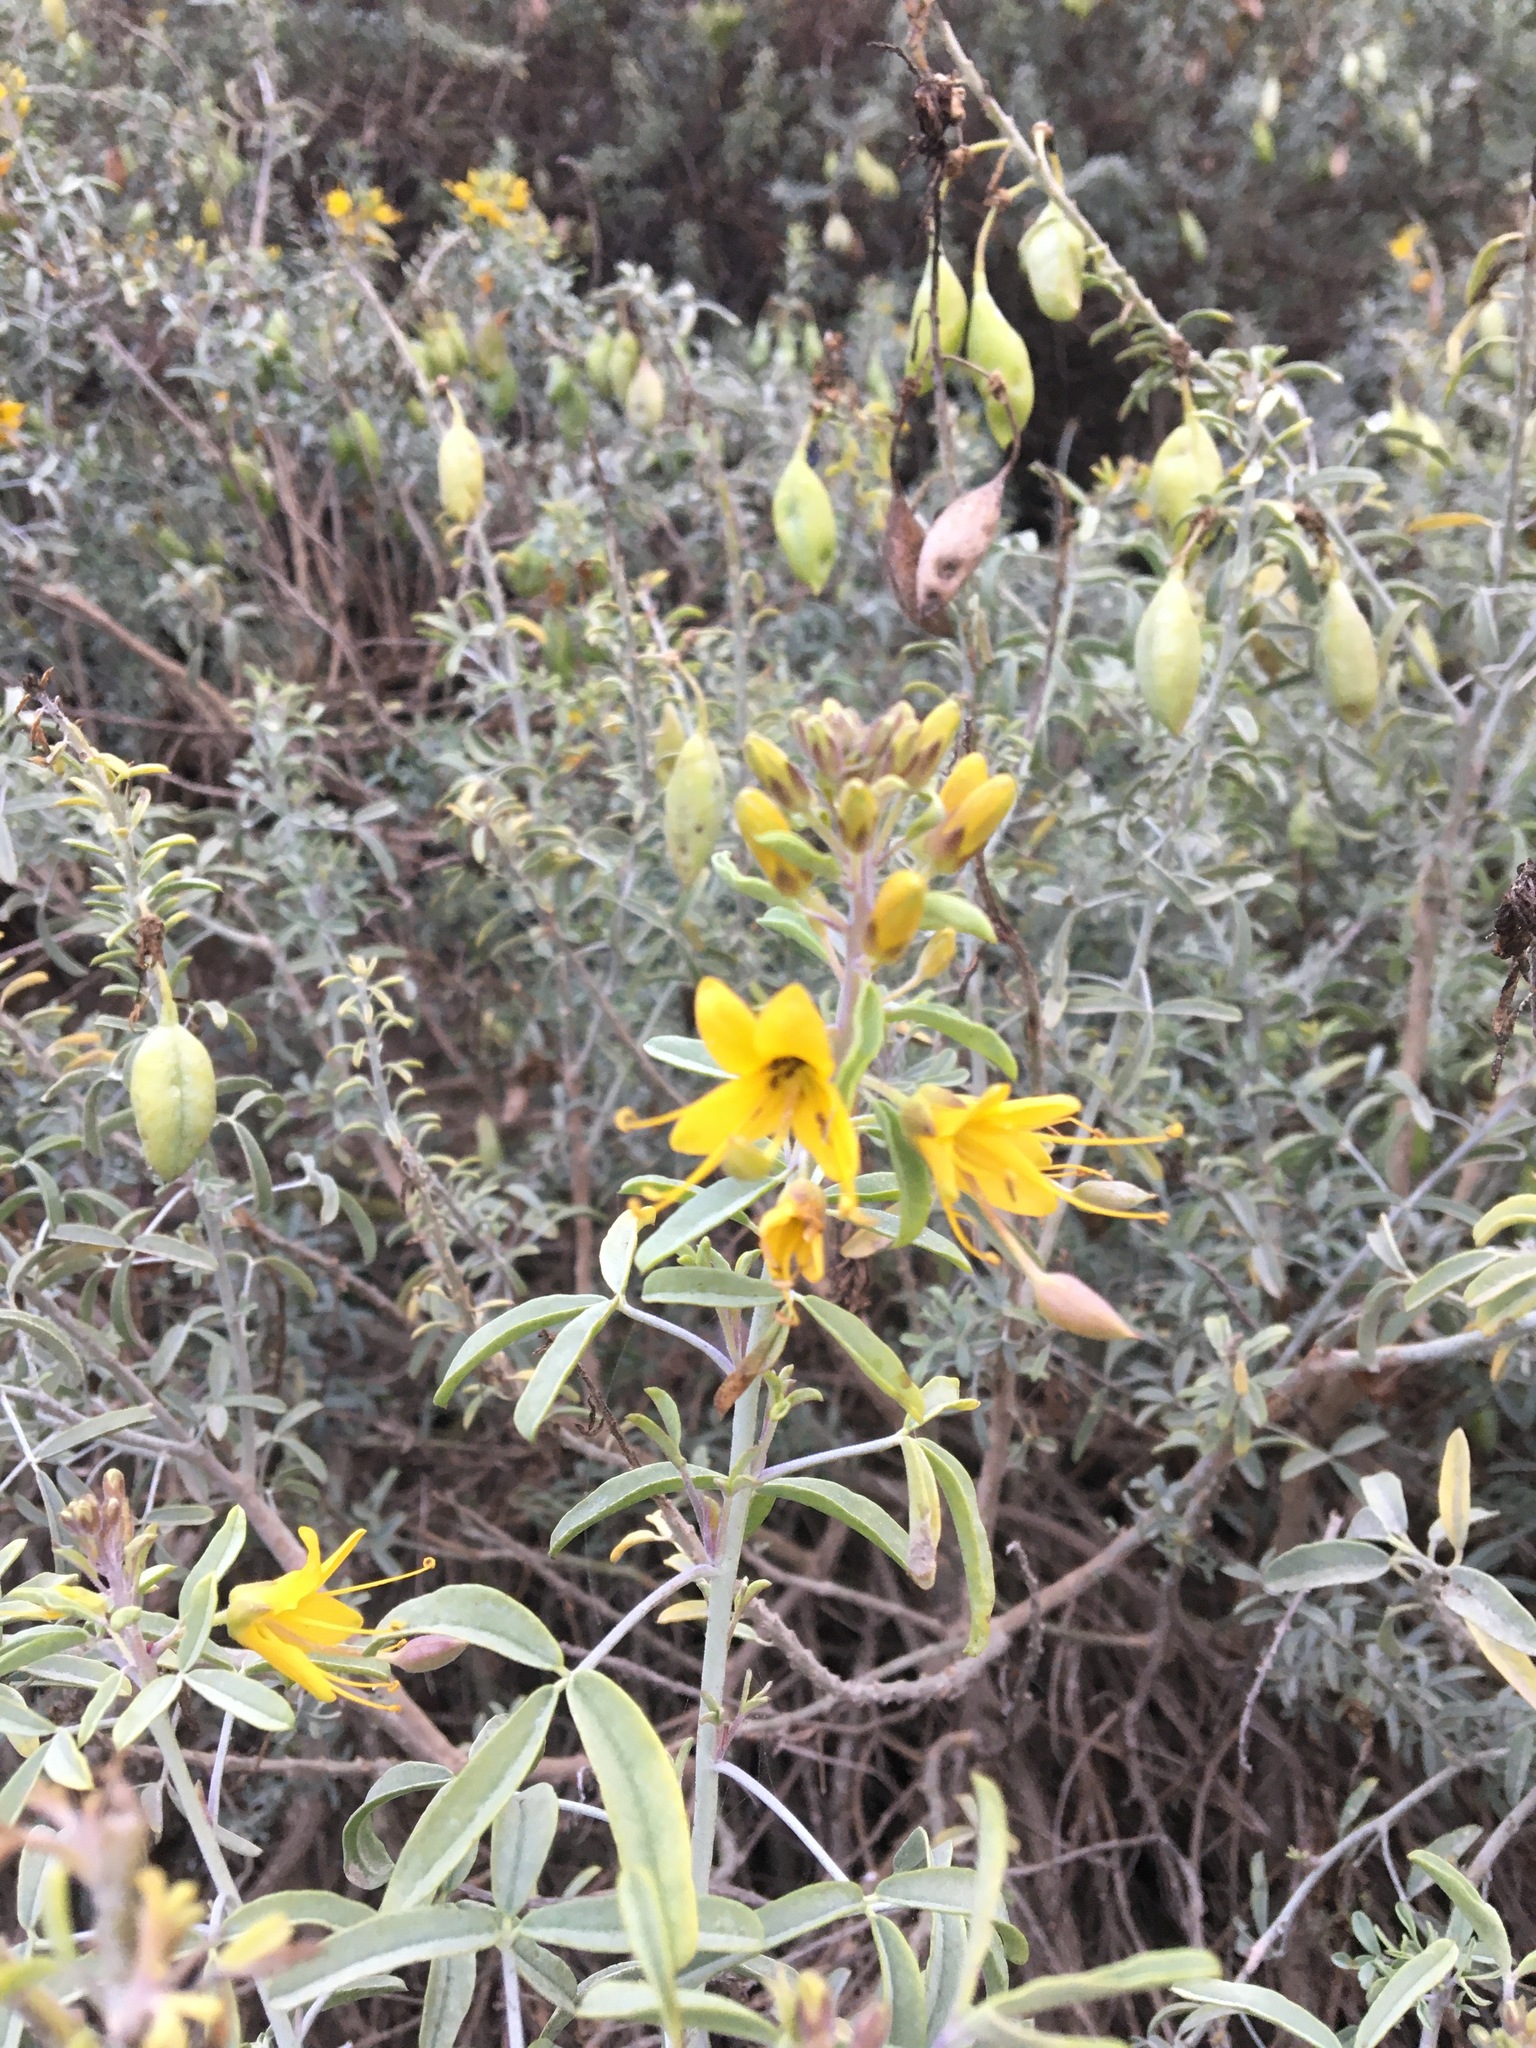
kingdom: Plantae
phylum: Tracheophyta
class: Magnoliopsida
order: Brassicales
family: Cleomaceae
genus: Cleomella
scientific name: Cleomella arborea
